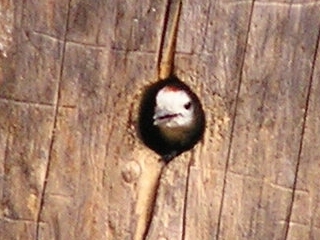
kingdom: Animalia
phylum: Chordata
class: Aves
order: Piciformes
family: Picidae
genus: Leuconotopicus
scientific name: Leuconotopicus albolarvatus
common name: White-headed woodpecker
